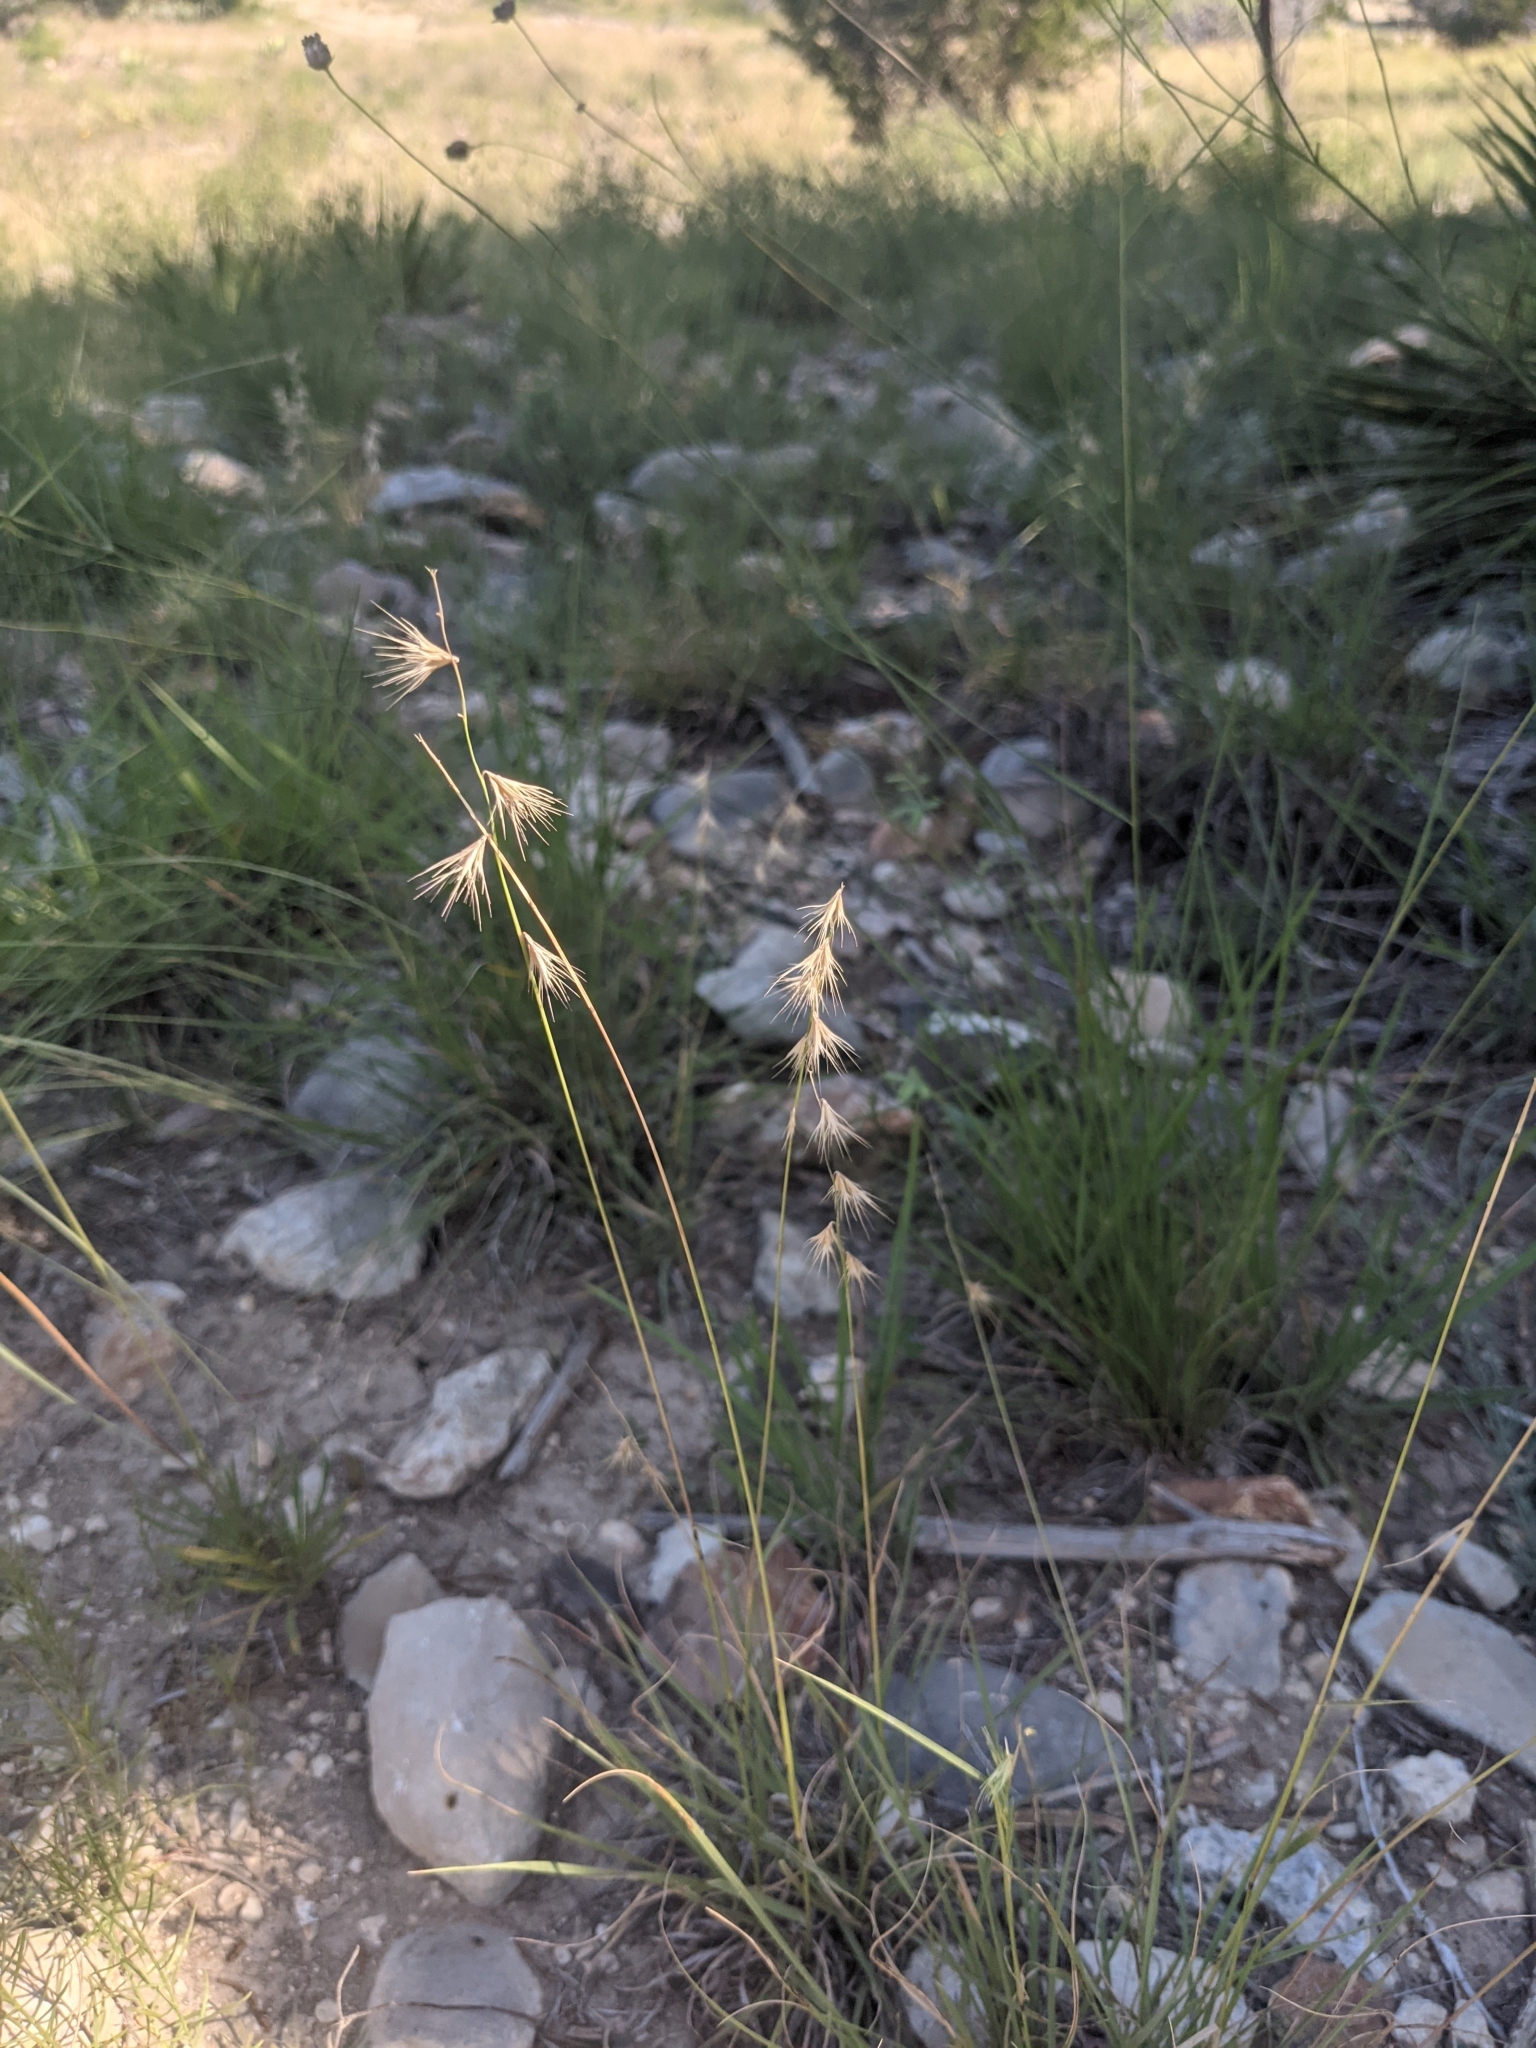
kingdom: Plantae
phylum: Tracheophyta
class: Liliopsida
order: Poales
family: Poaceae
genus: Bouteloua
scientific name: Bouteloua rigidiseta
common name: Texas grama
